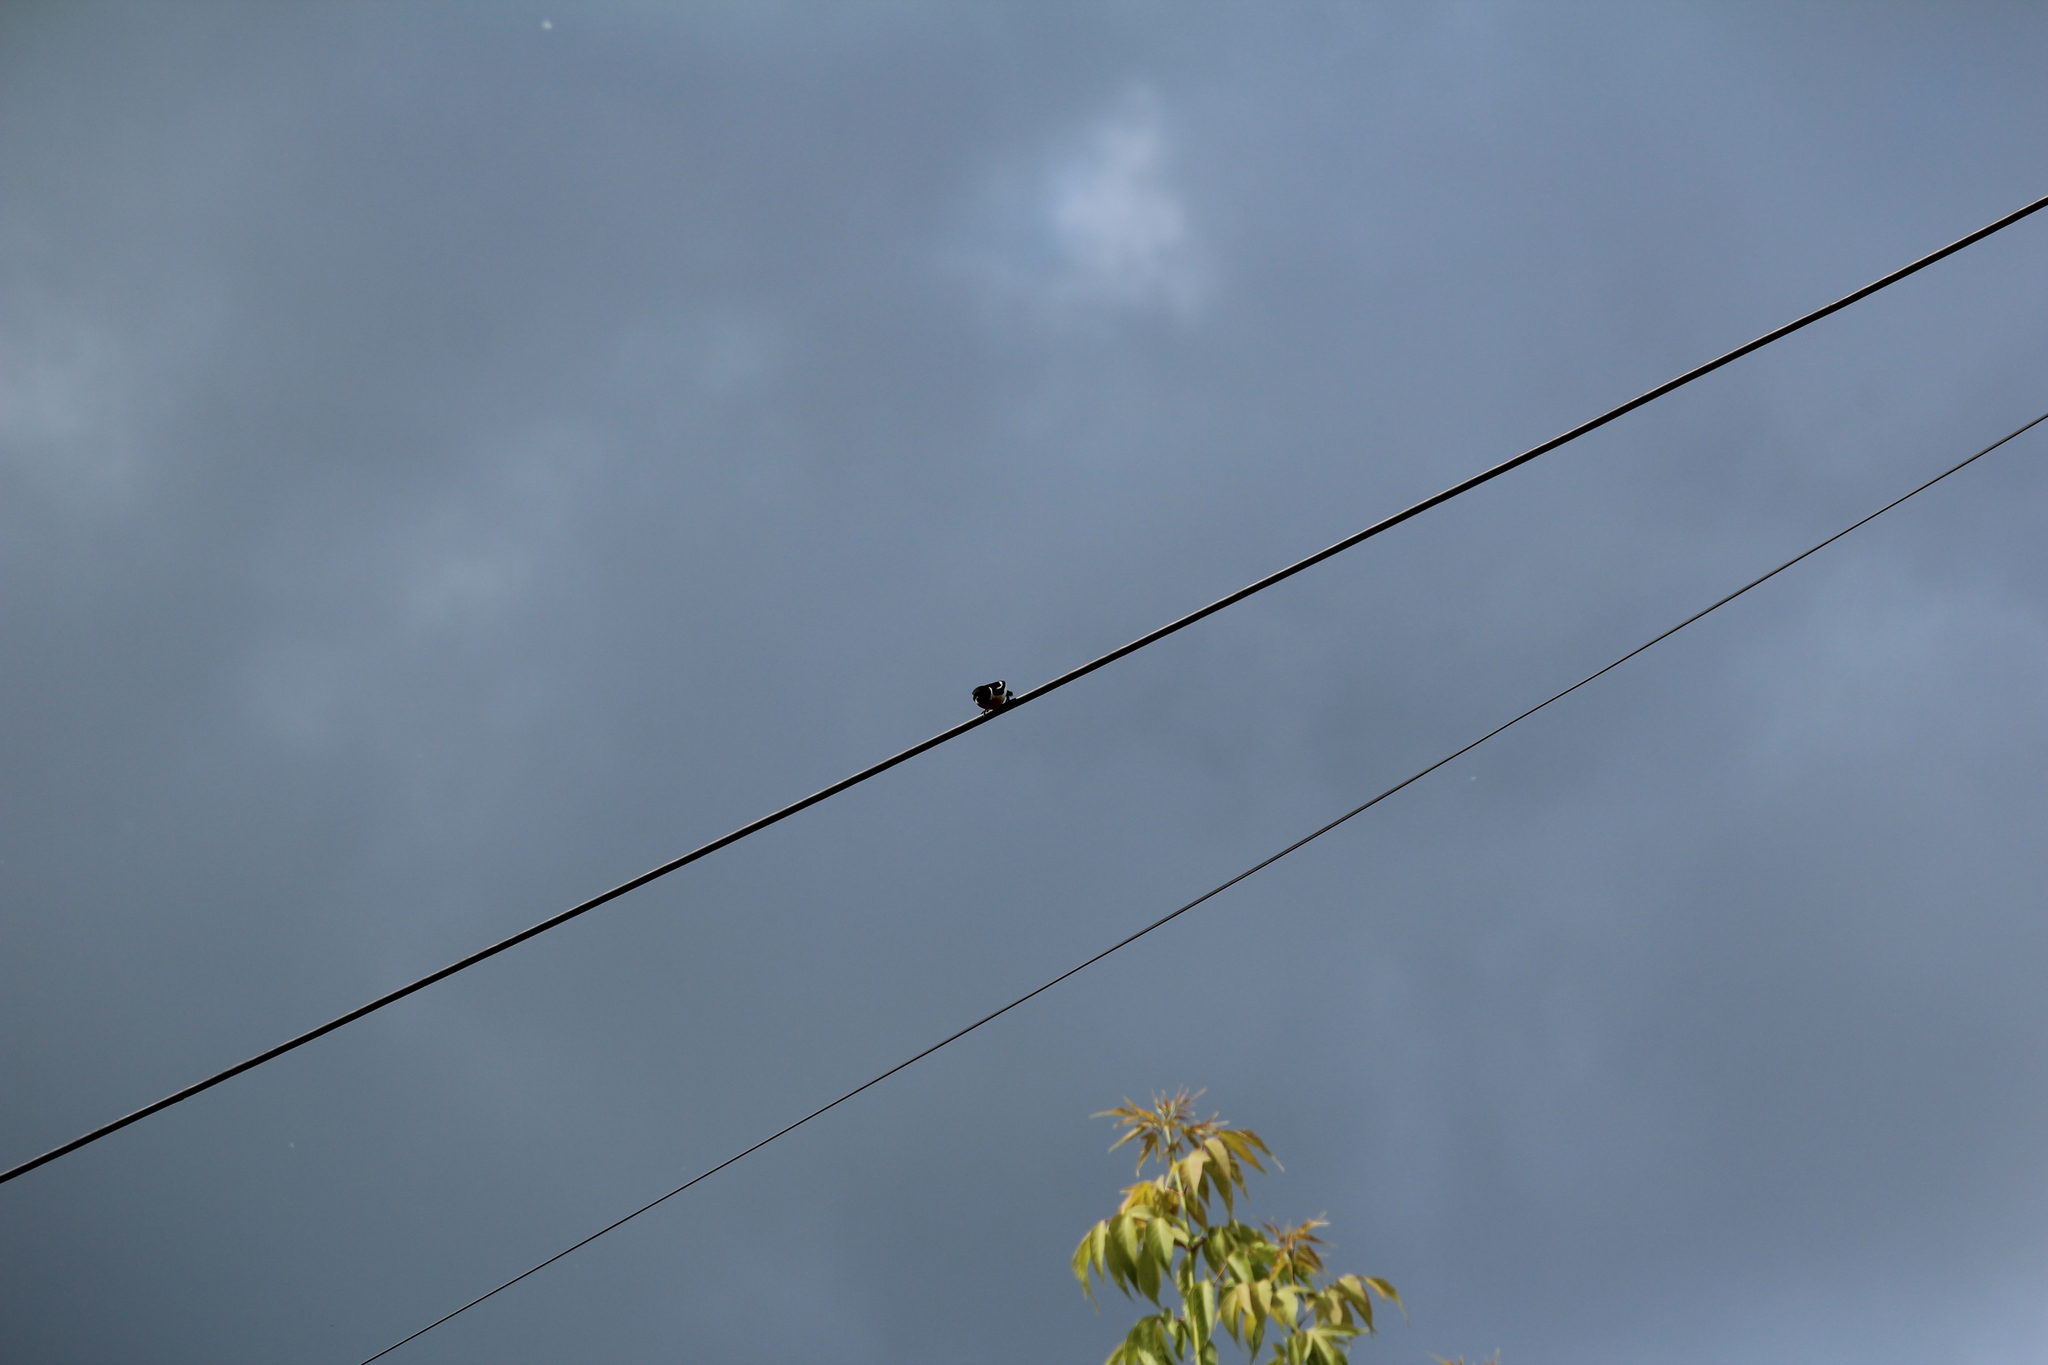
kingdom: Animalia
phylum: Chordata
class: Aves
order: Passeriformes
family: Muscicapidae
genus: Saxicola
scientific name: Saxicola maurus
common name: Siberian stonechat
